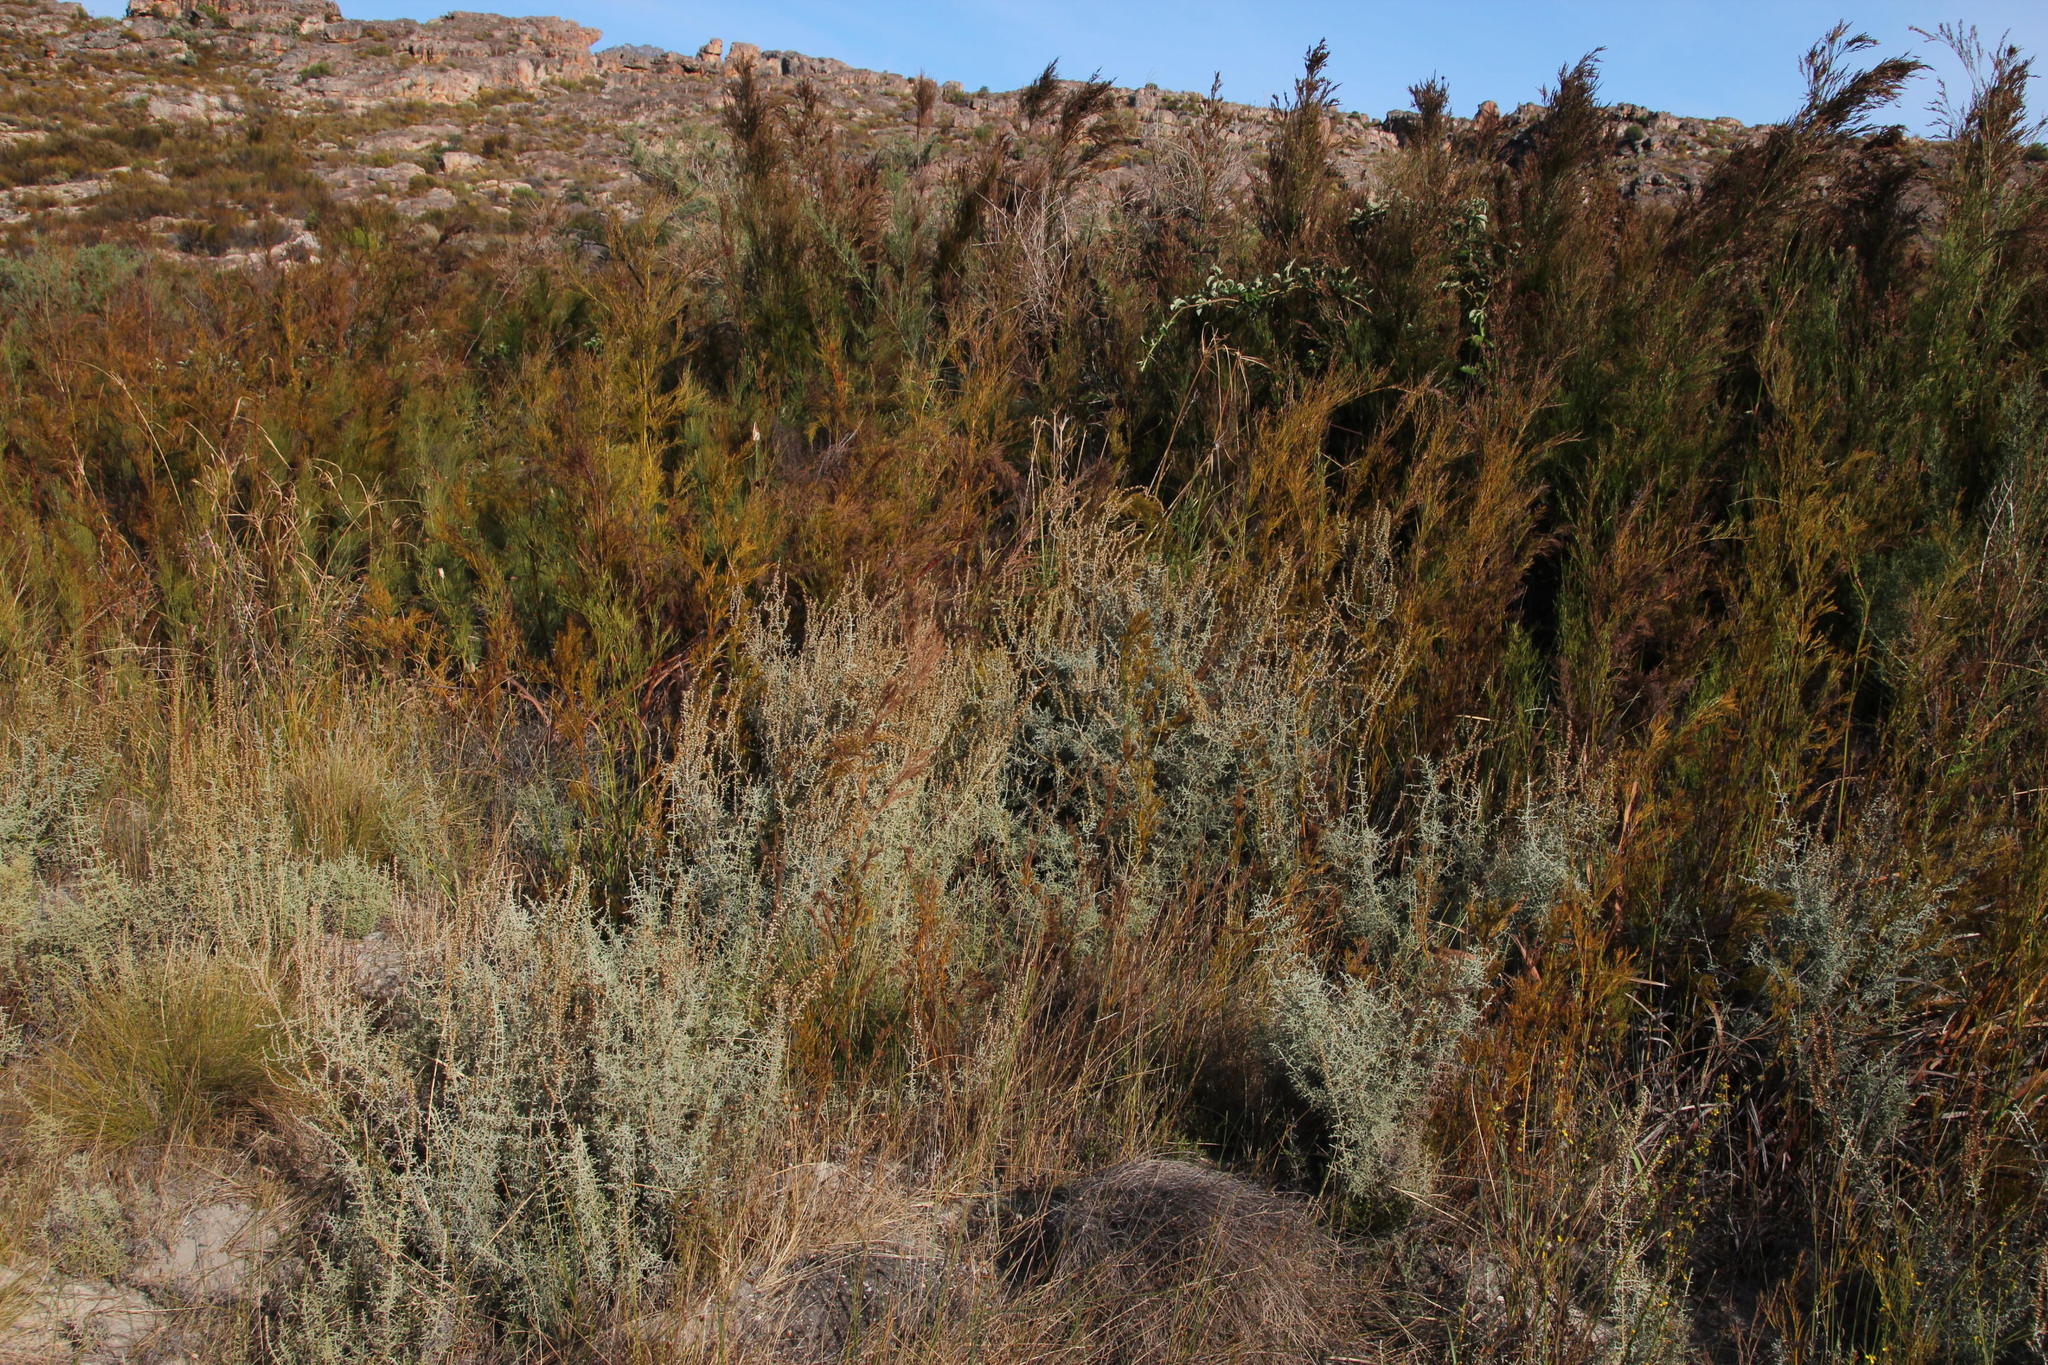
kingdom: Plantae
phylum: Tracheophyta
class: Magnoliopsida
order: Asterales
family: Asteraceae
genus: Seriphium
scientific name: Seriphium plumosum
